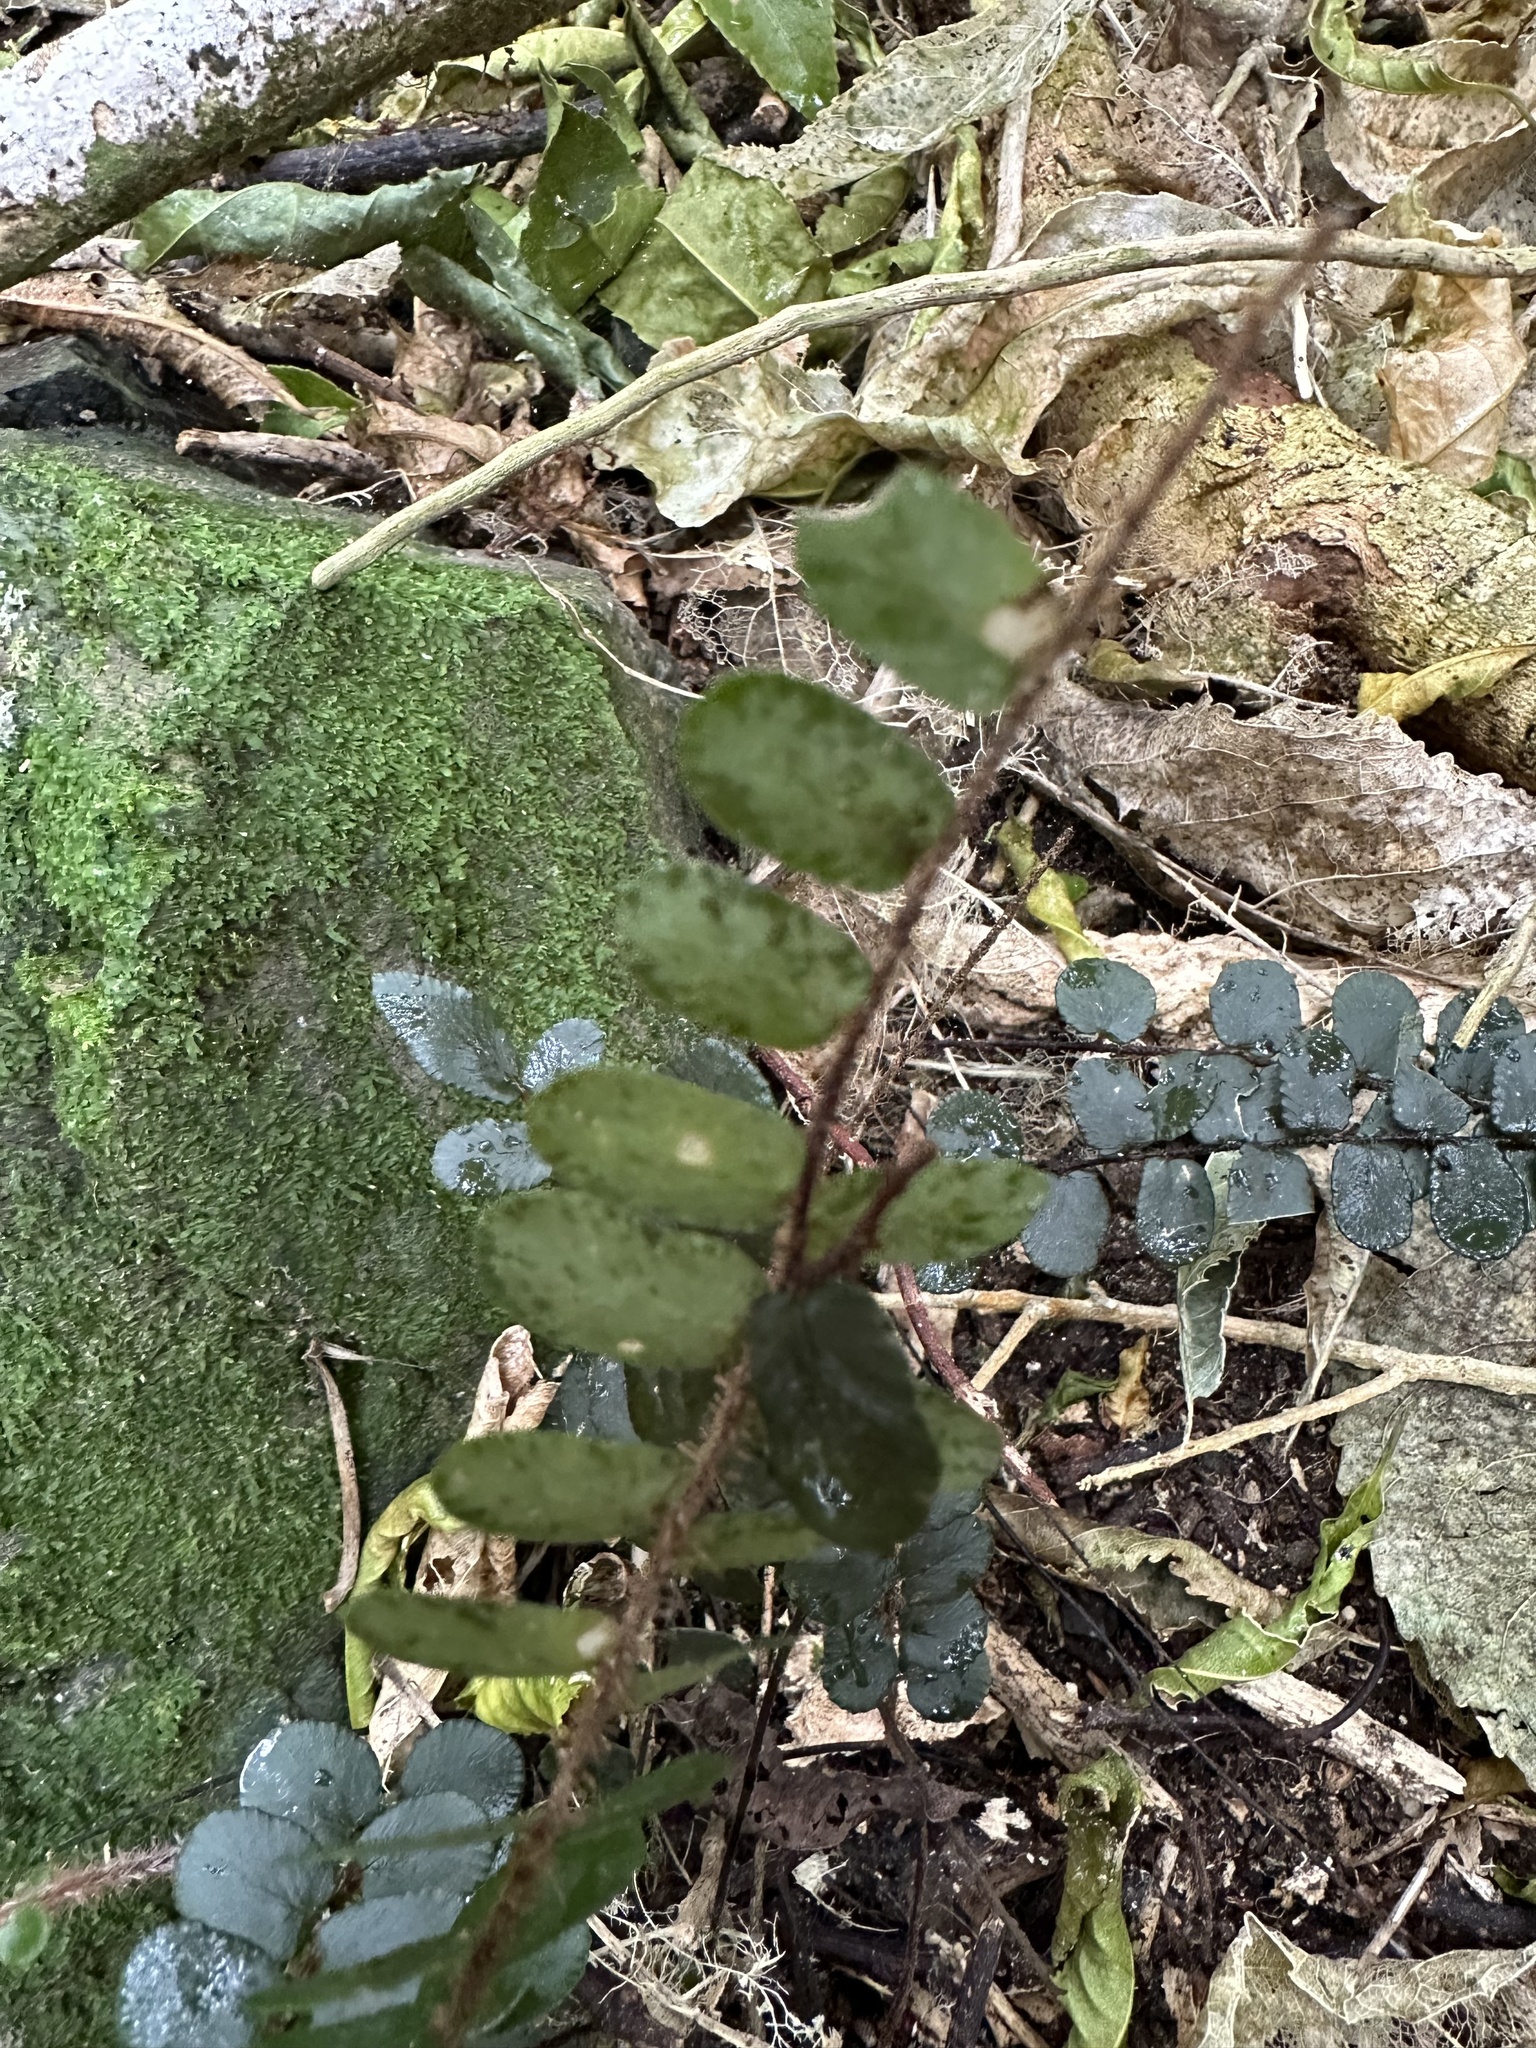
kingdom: Plantae
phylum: Tracheophyta
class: Polypodiopsida
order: Polypodiales
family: Pteridaceae
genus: Pellaea
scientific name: Pellaea rotundifolia
